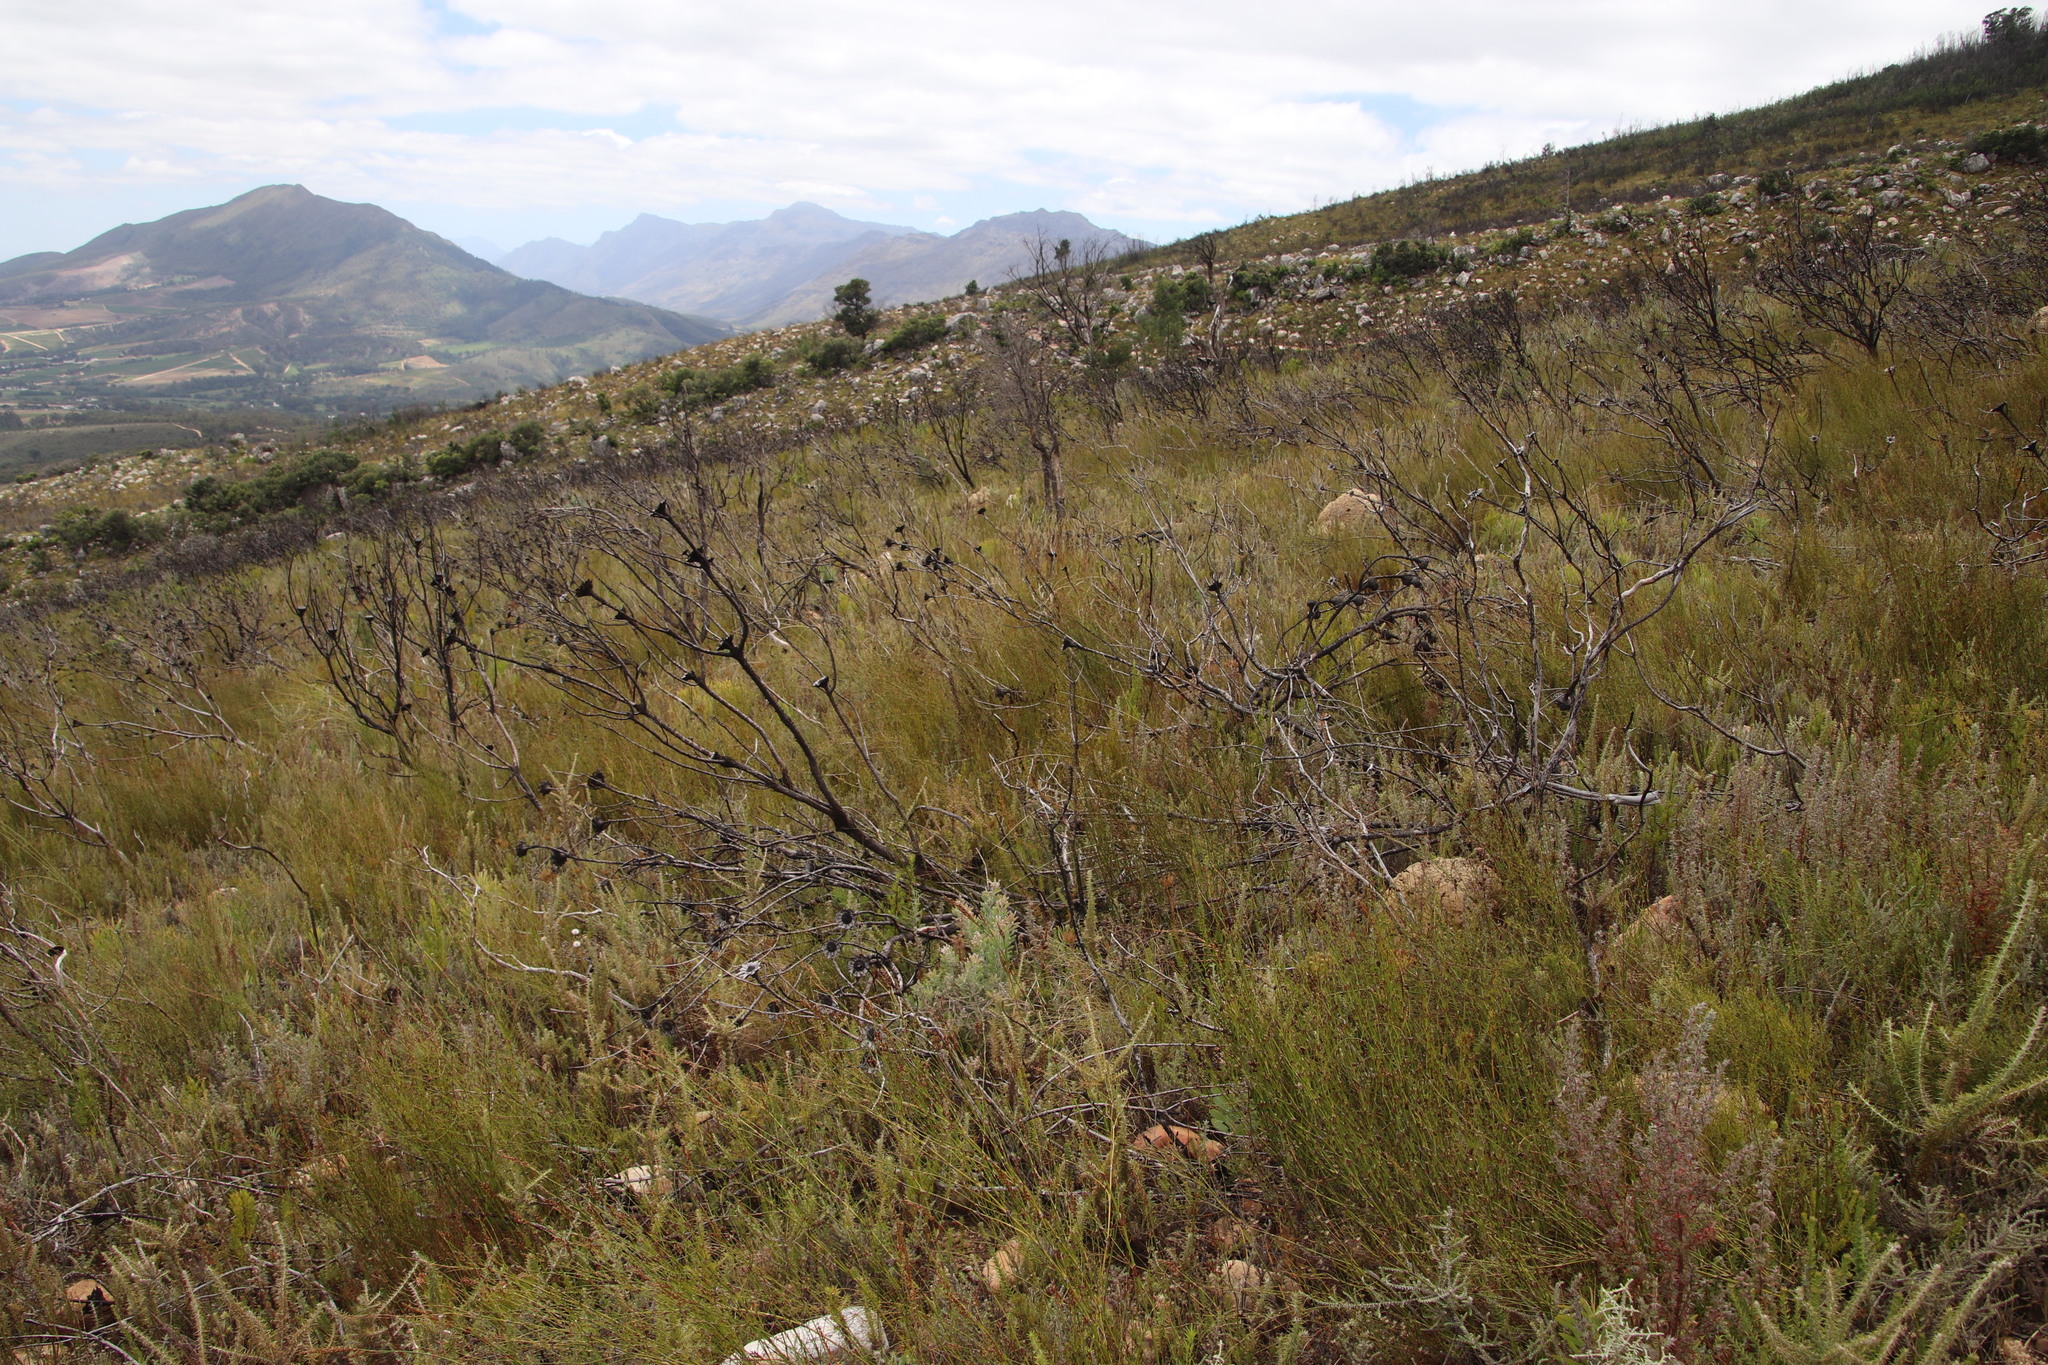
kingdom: Plantae
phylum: Tracheophyta
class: Magnoliopsida
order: Proteales
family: Proteaceae
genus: Leucadendron
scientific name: Leucadendron rubrum
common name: Spinning top
